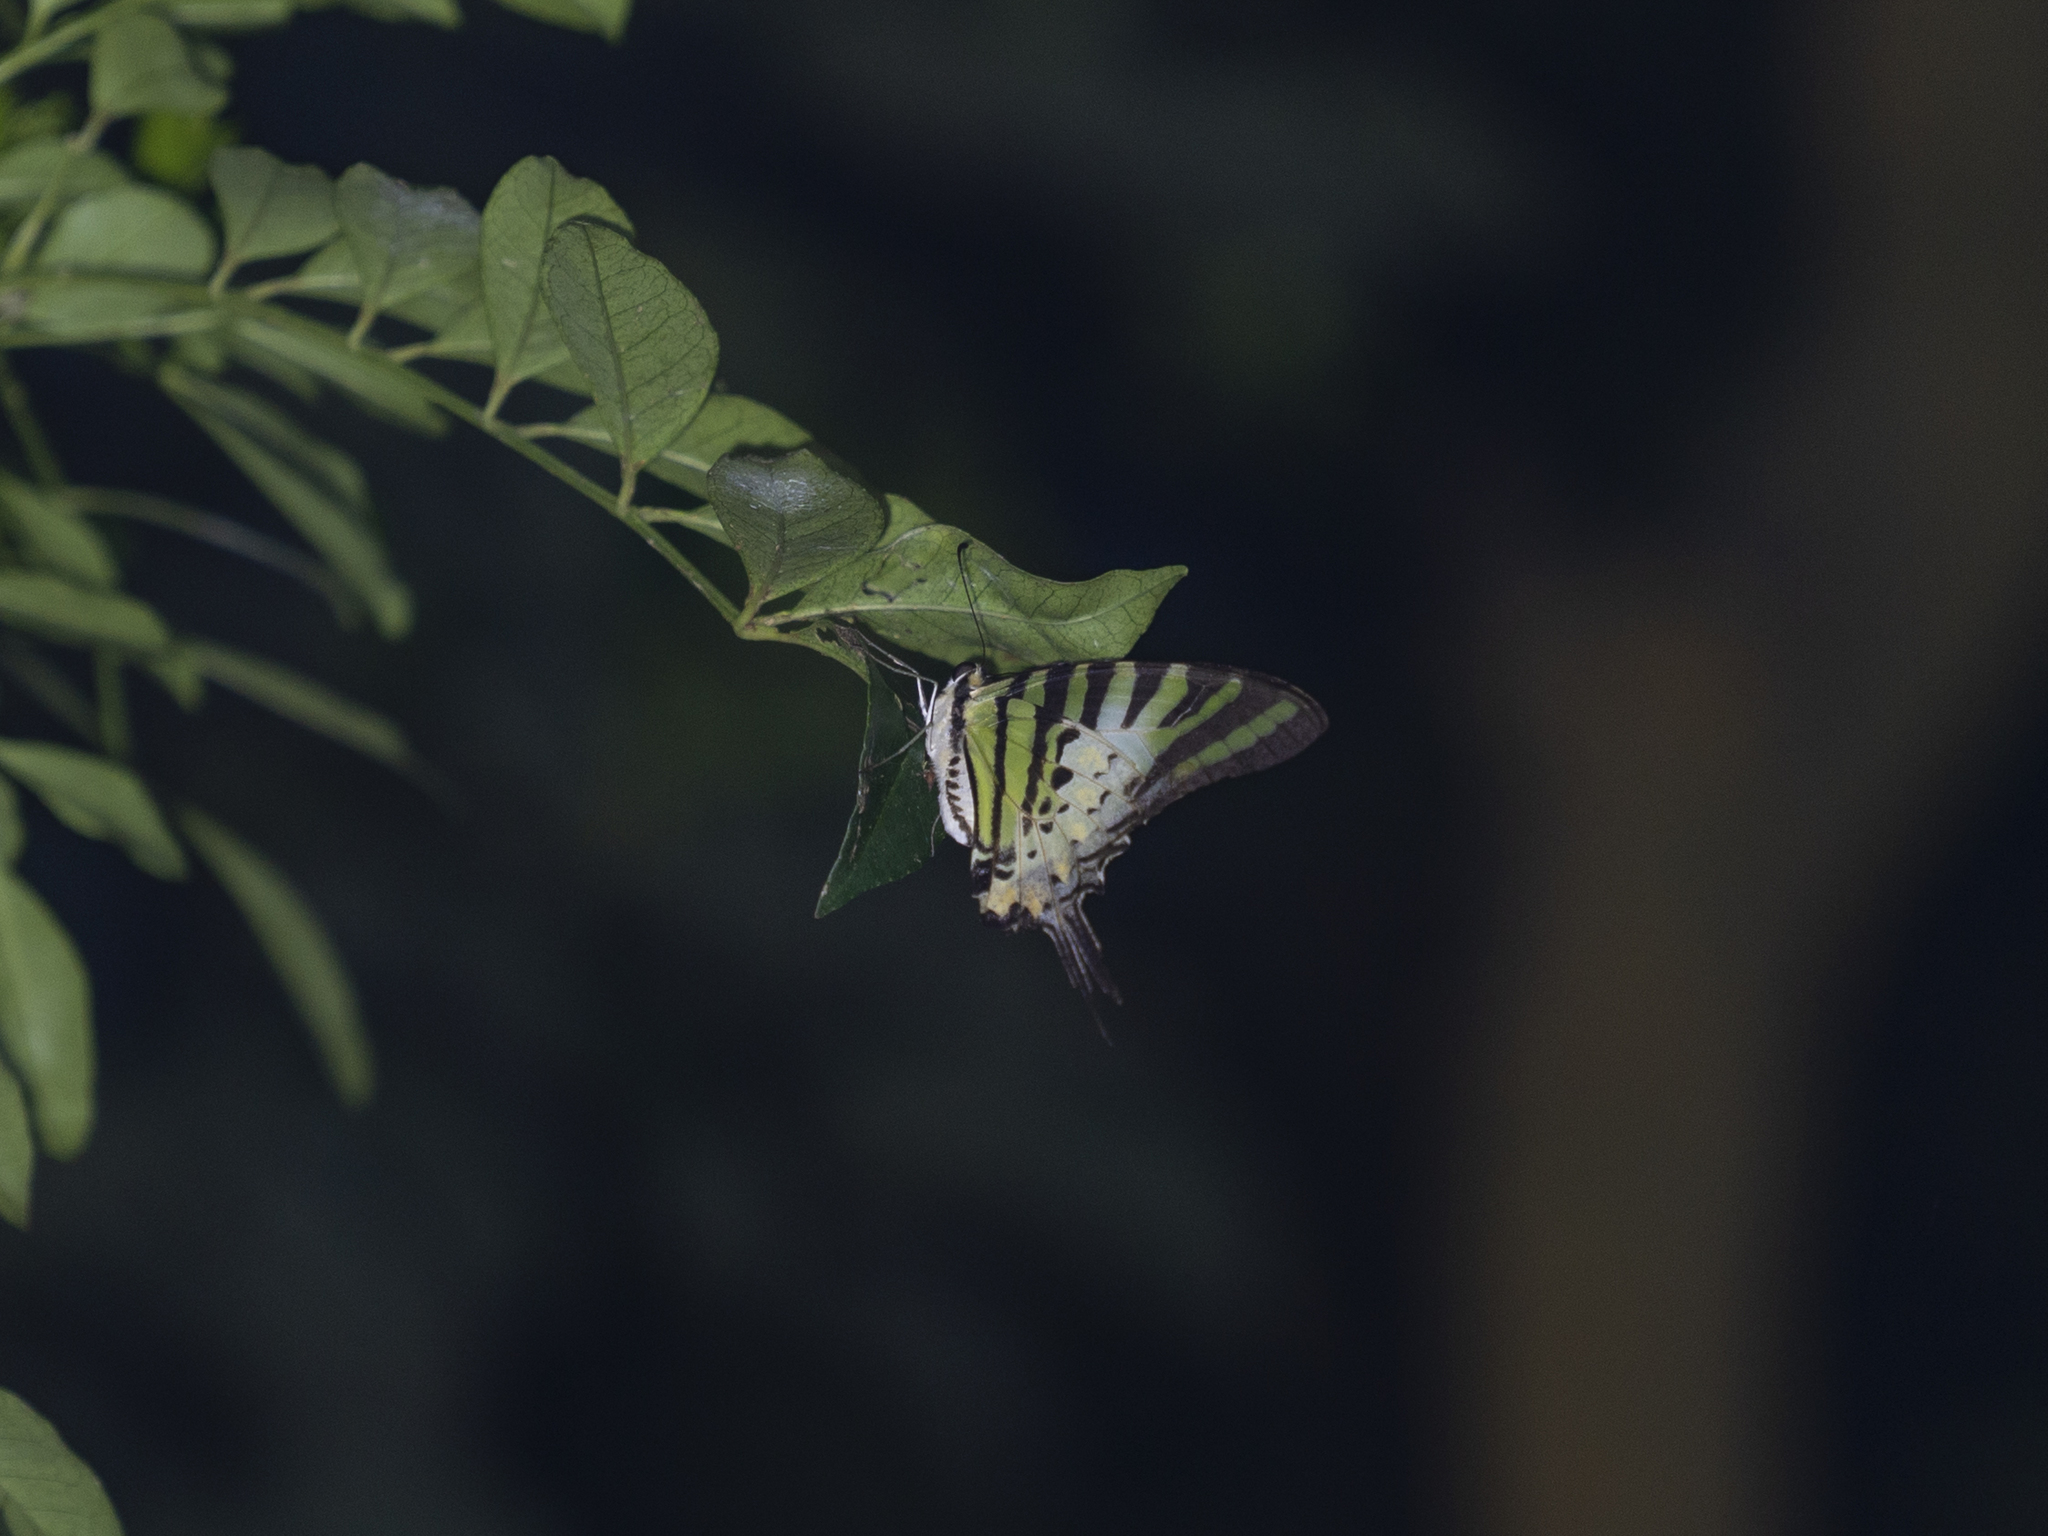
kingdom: Animalia
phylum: Arthropoda
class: Insecta
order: Lepidoptera
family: Papilionidae
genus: Graphium
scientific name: Graphium antiphates
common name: Fivebar swordtail
